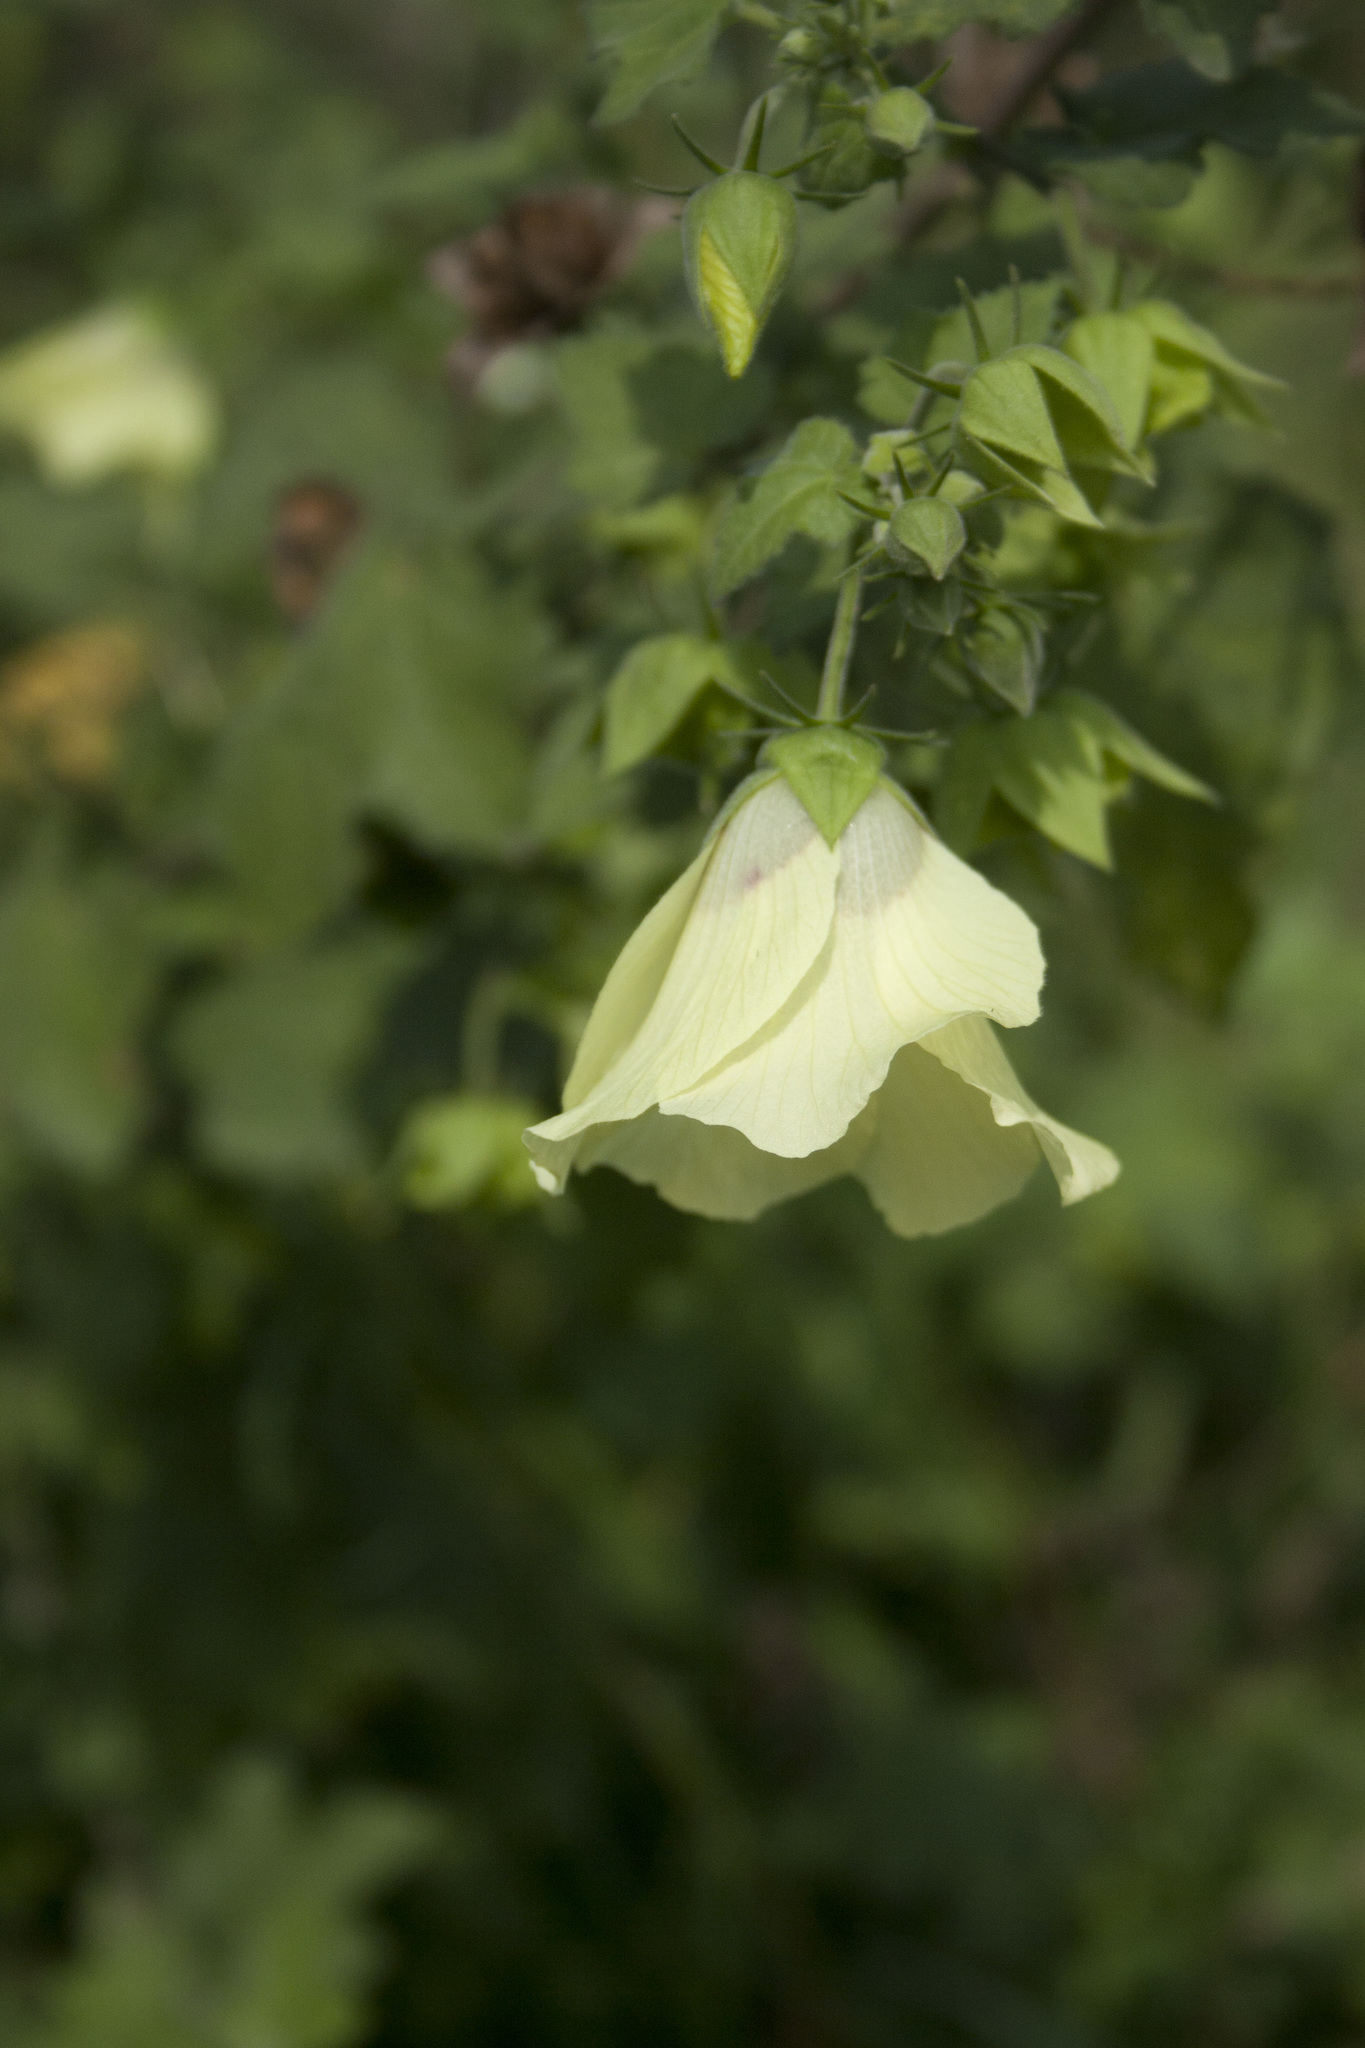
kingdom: Plantae
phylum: Tracheophyta
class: Magnoliopsida
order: Malvales
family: Malvaceae
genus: Hibiscus
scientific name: Hibiscus vitifolius
